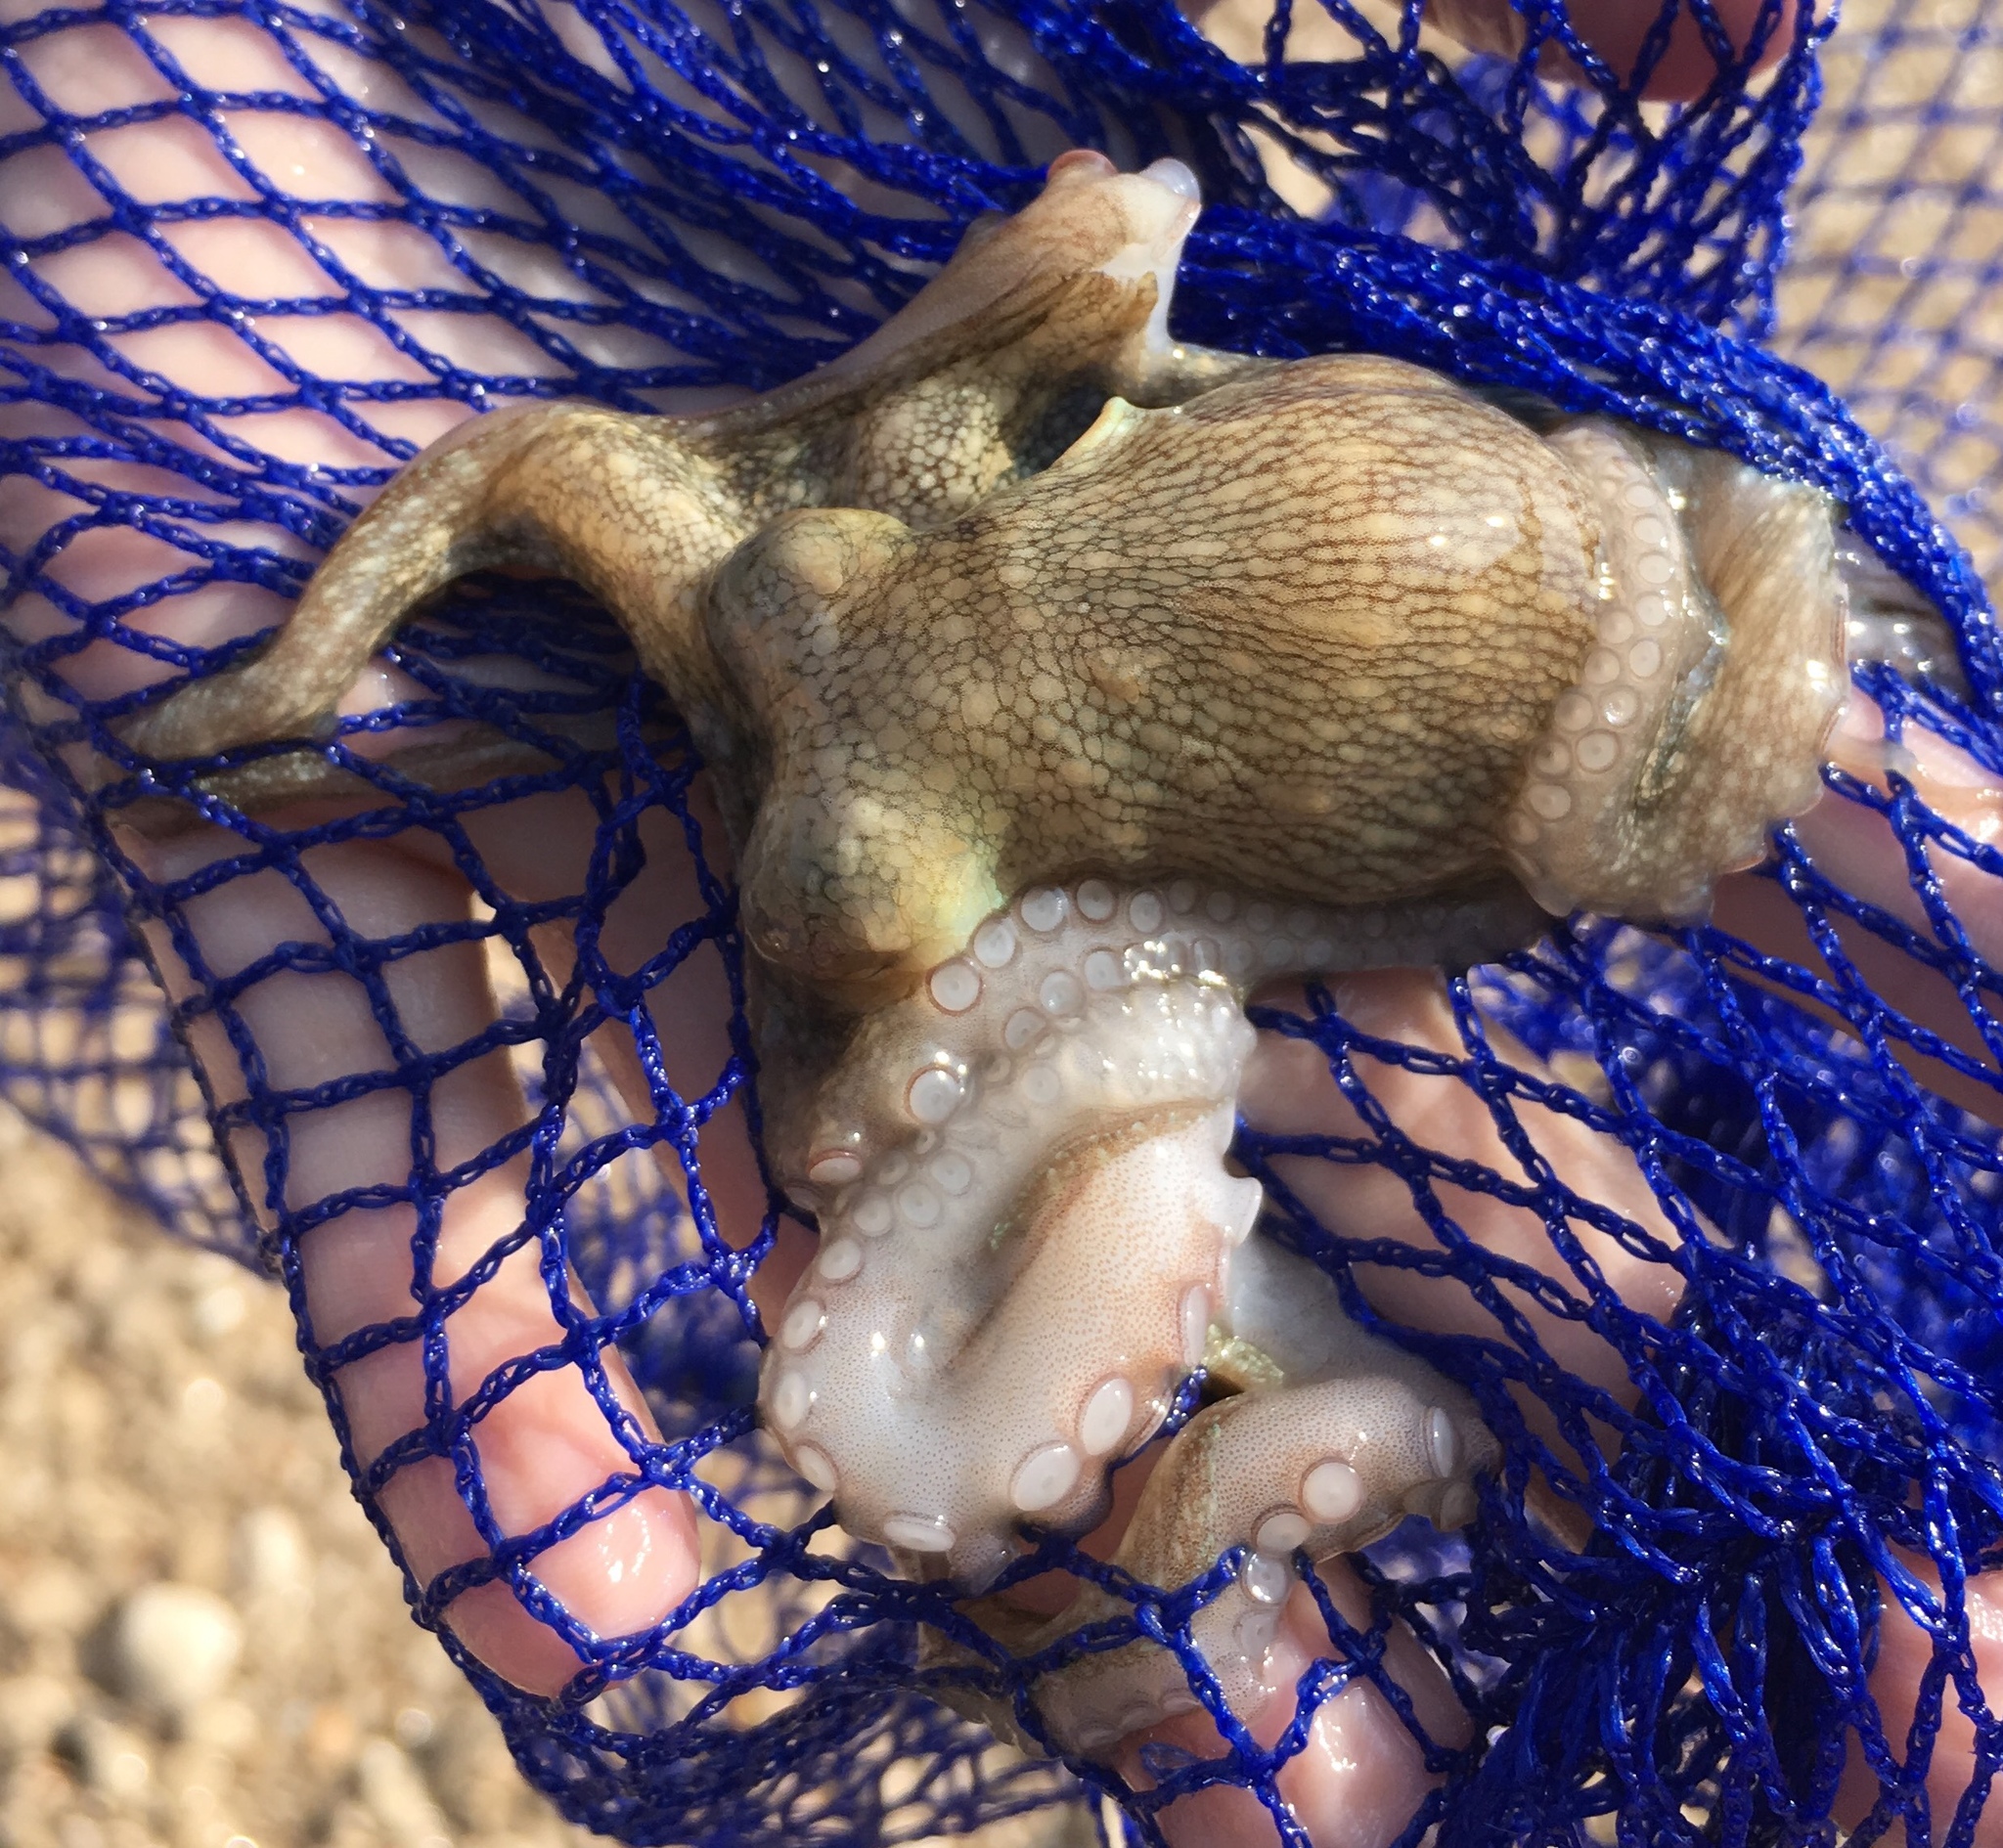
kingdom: Animalia
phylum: Mollusca
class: Cephalopoda
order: Octopoda
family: Octopodidae
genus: Octopus
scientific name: Octopus vulgaris
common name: Common octopus
